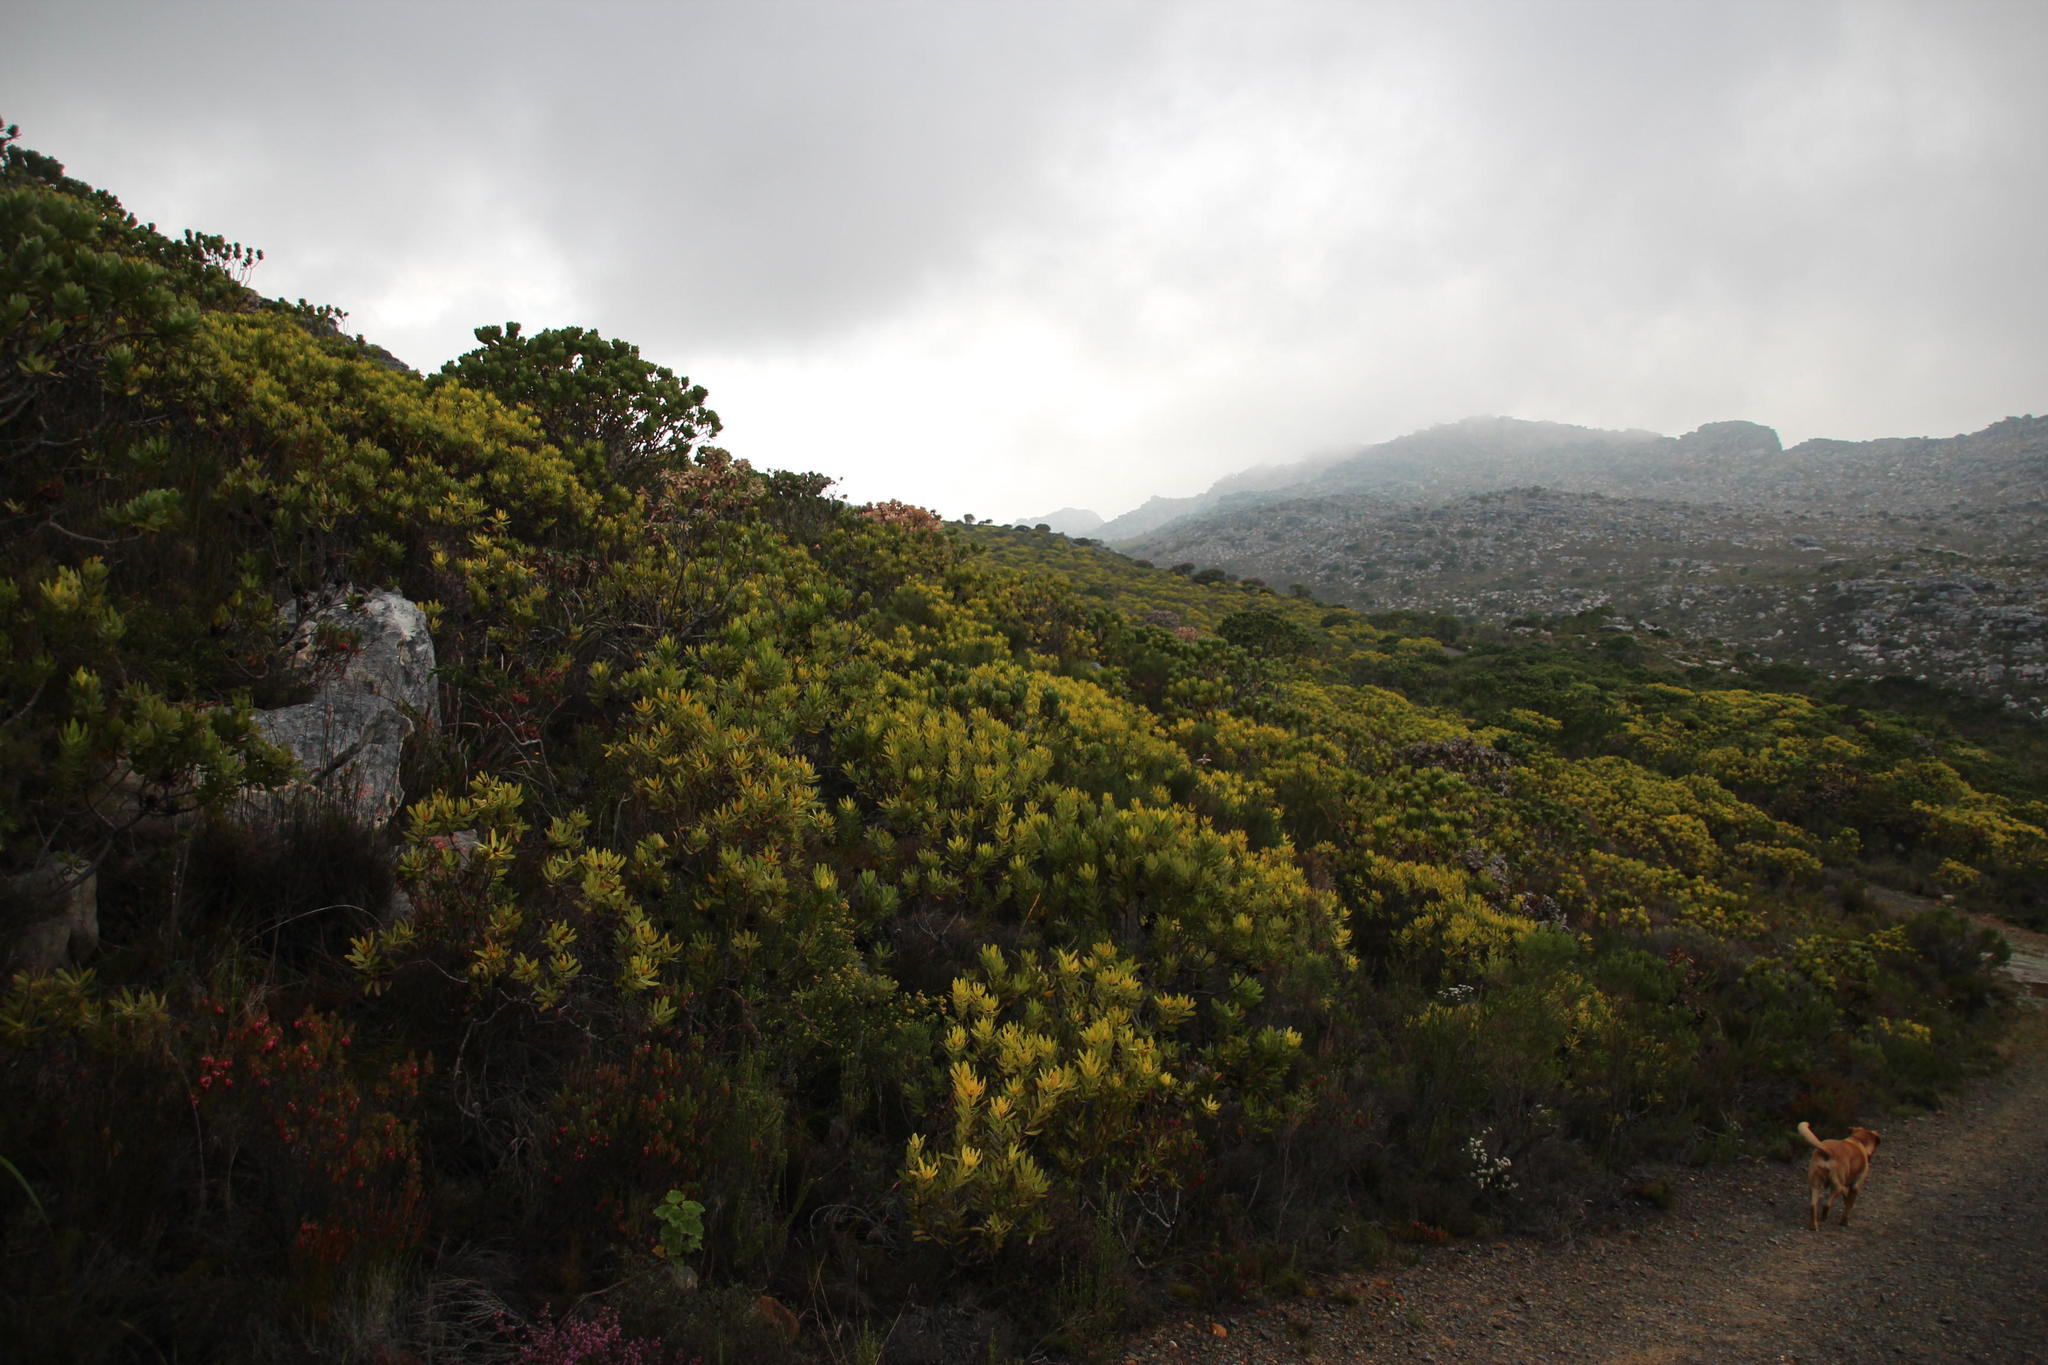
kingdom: Plantae
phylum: Tracheophyta
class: Magnoliopsida
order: Proteales
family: Proteaceae
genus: Leucadendron
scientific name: Leucadendron laureolum
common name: Golden sunshinebush
